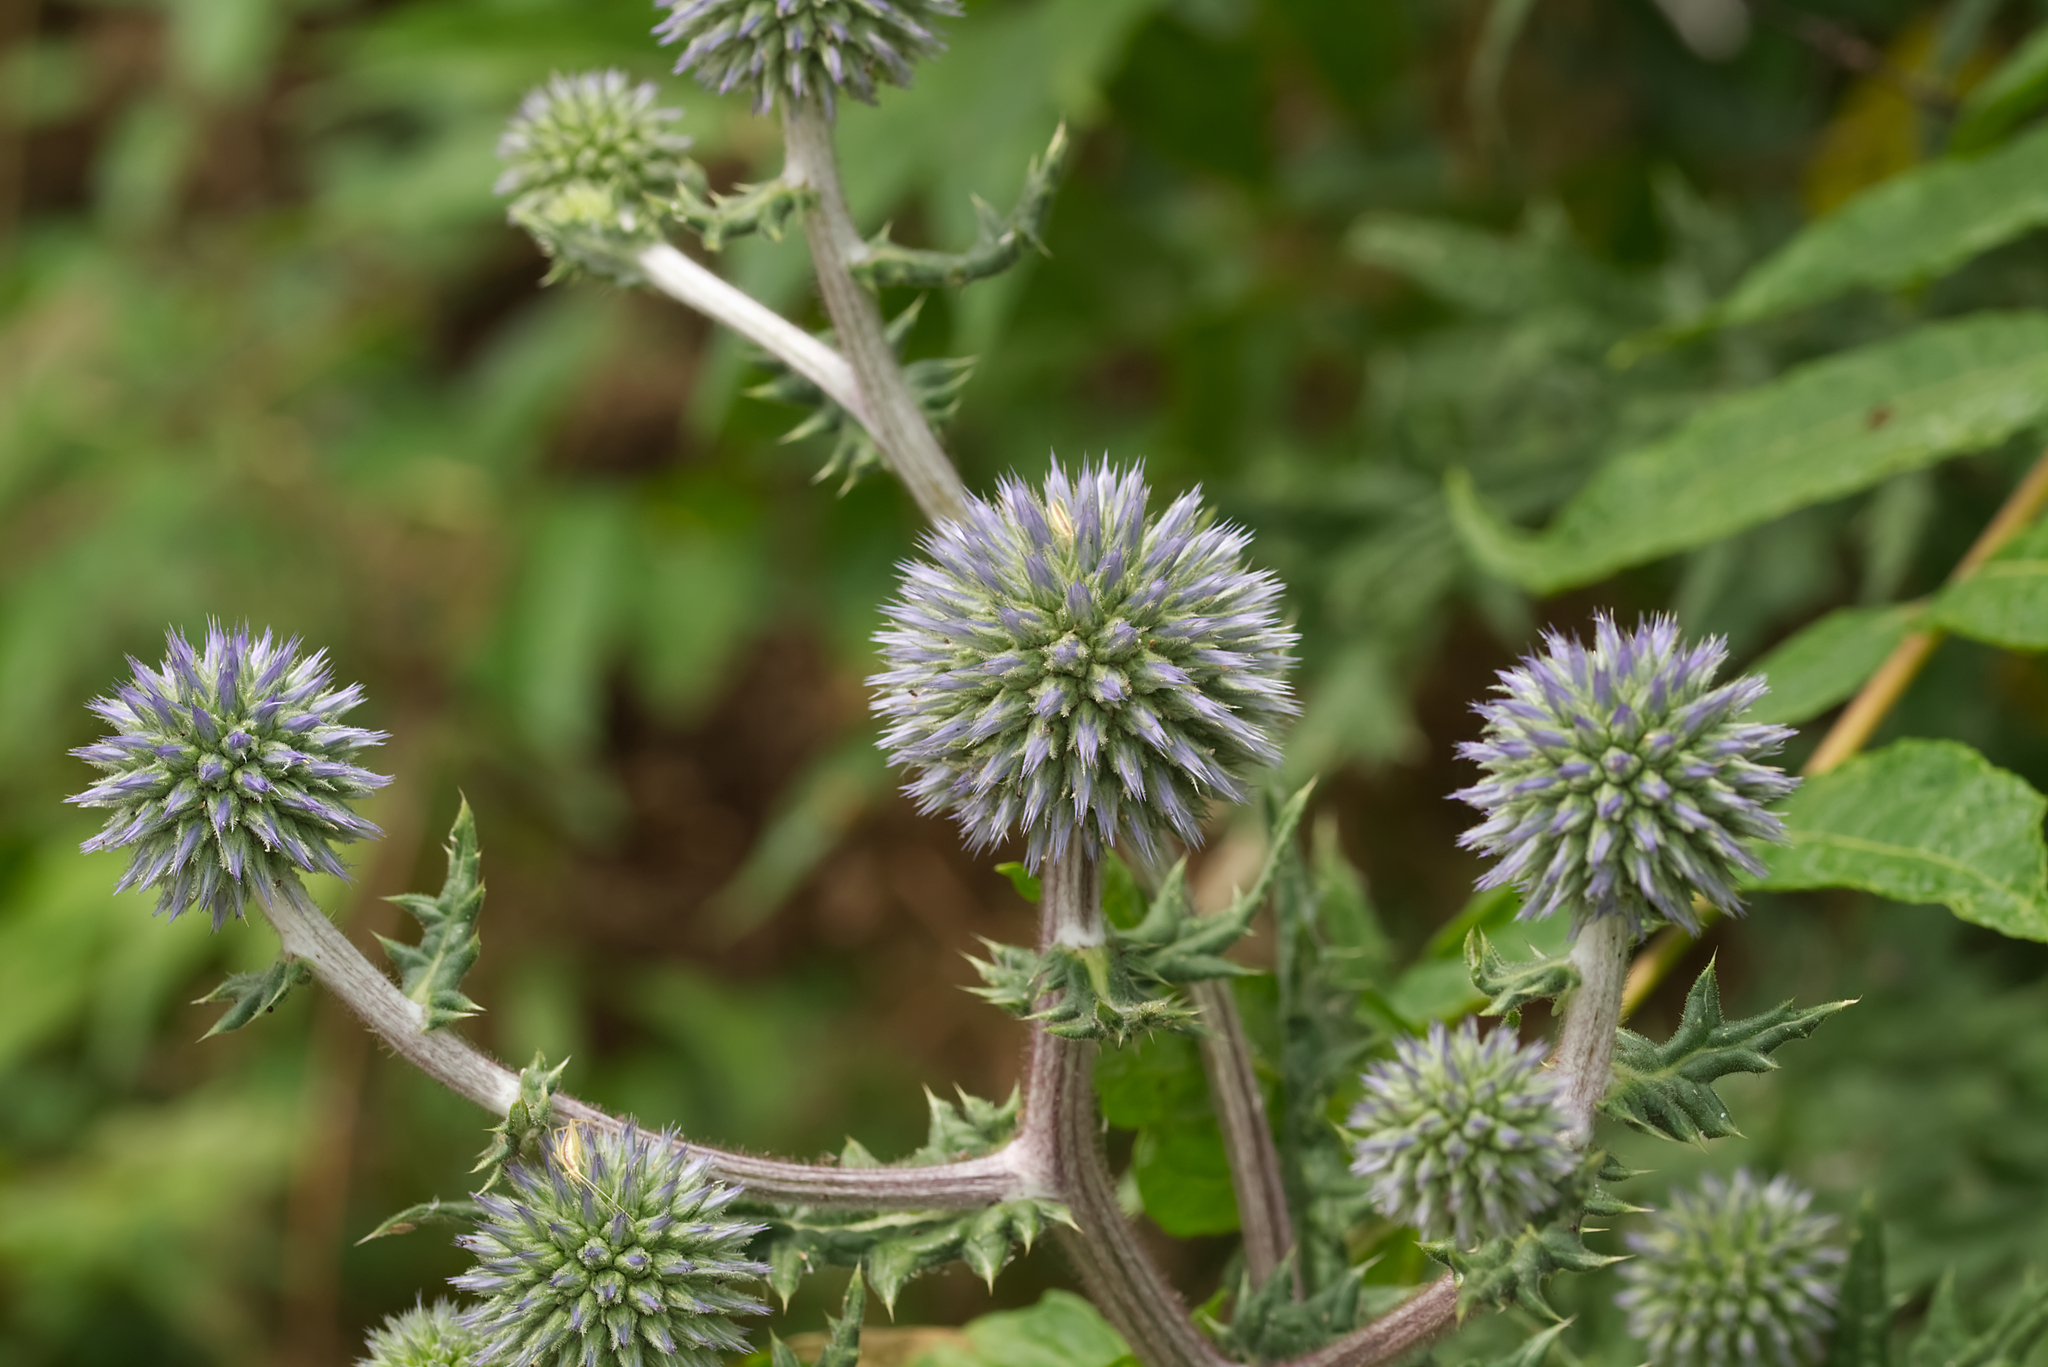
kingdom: Plantae
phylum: Tracheophyta
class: Magnoliopsida
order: Asterales
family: Asteraceae
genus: Echinops
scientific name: Echinops sphaerocephalus
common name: Glandular globe-thistle
